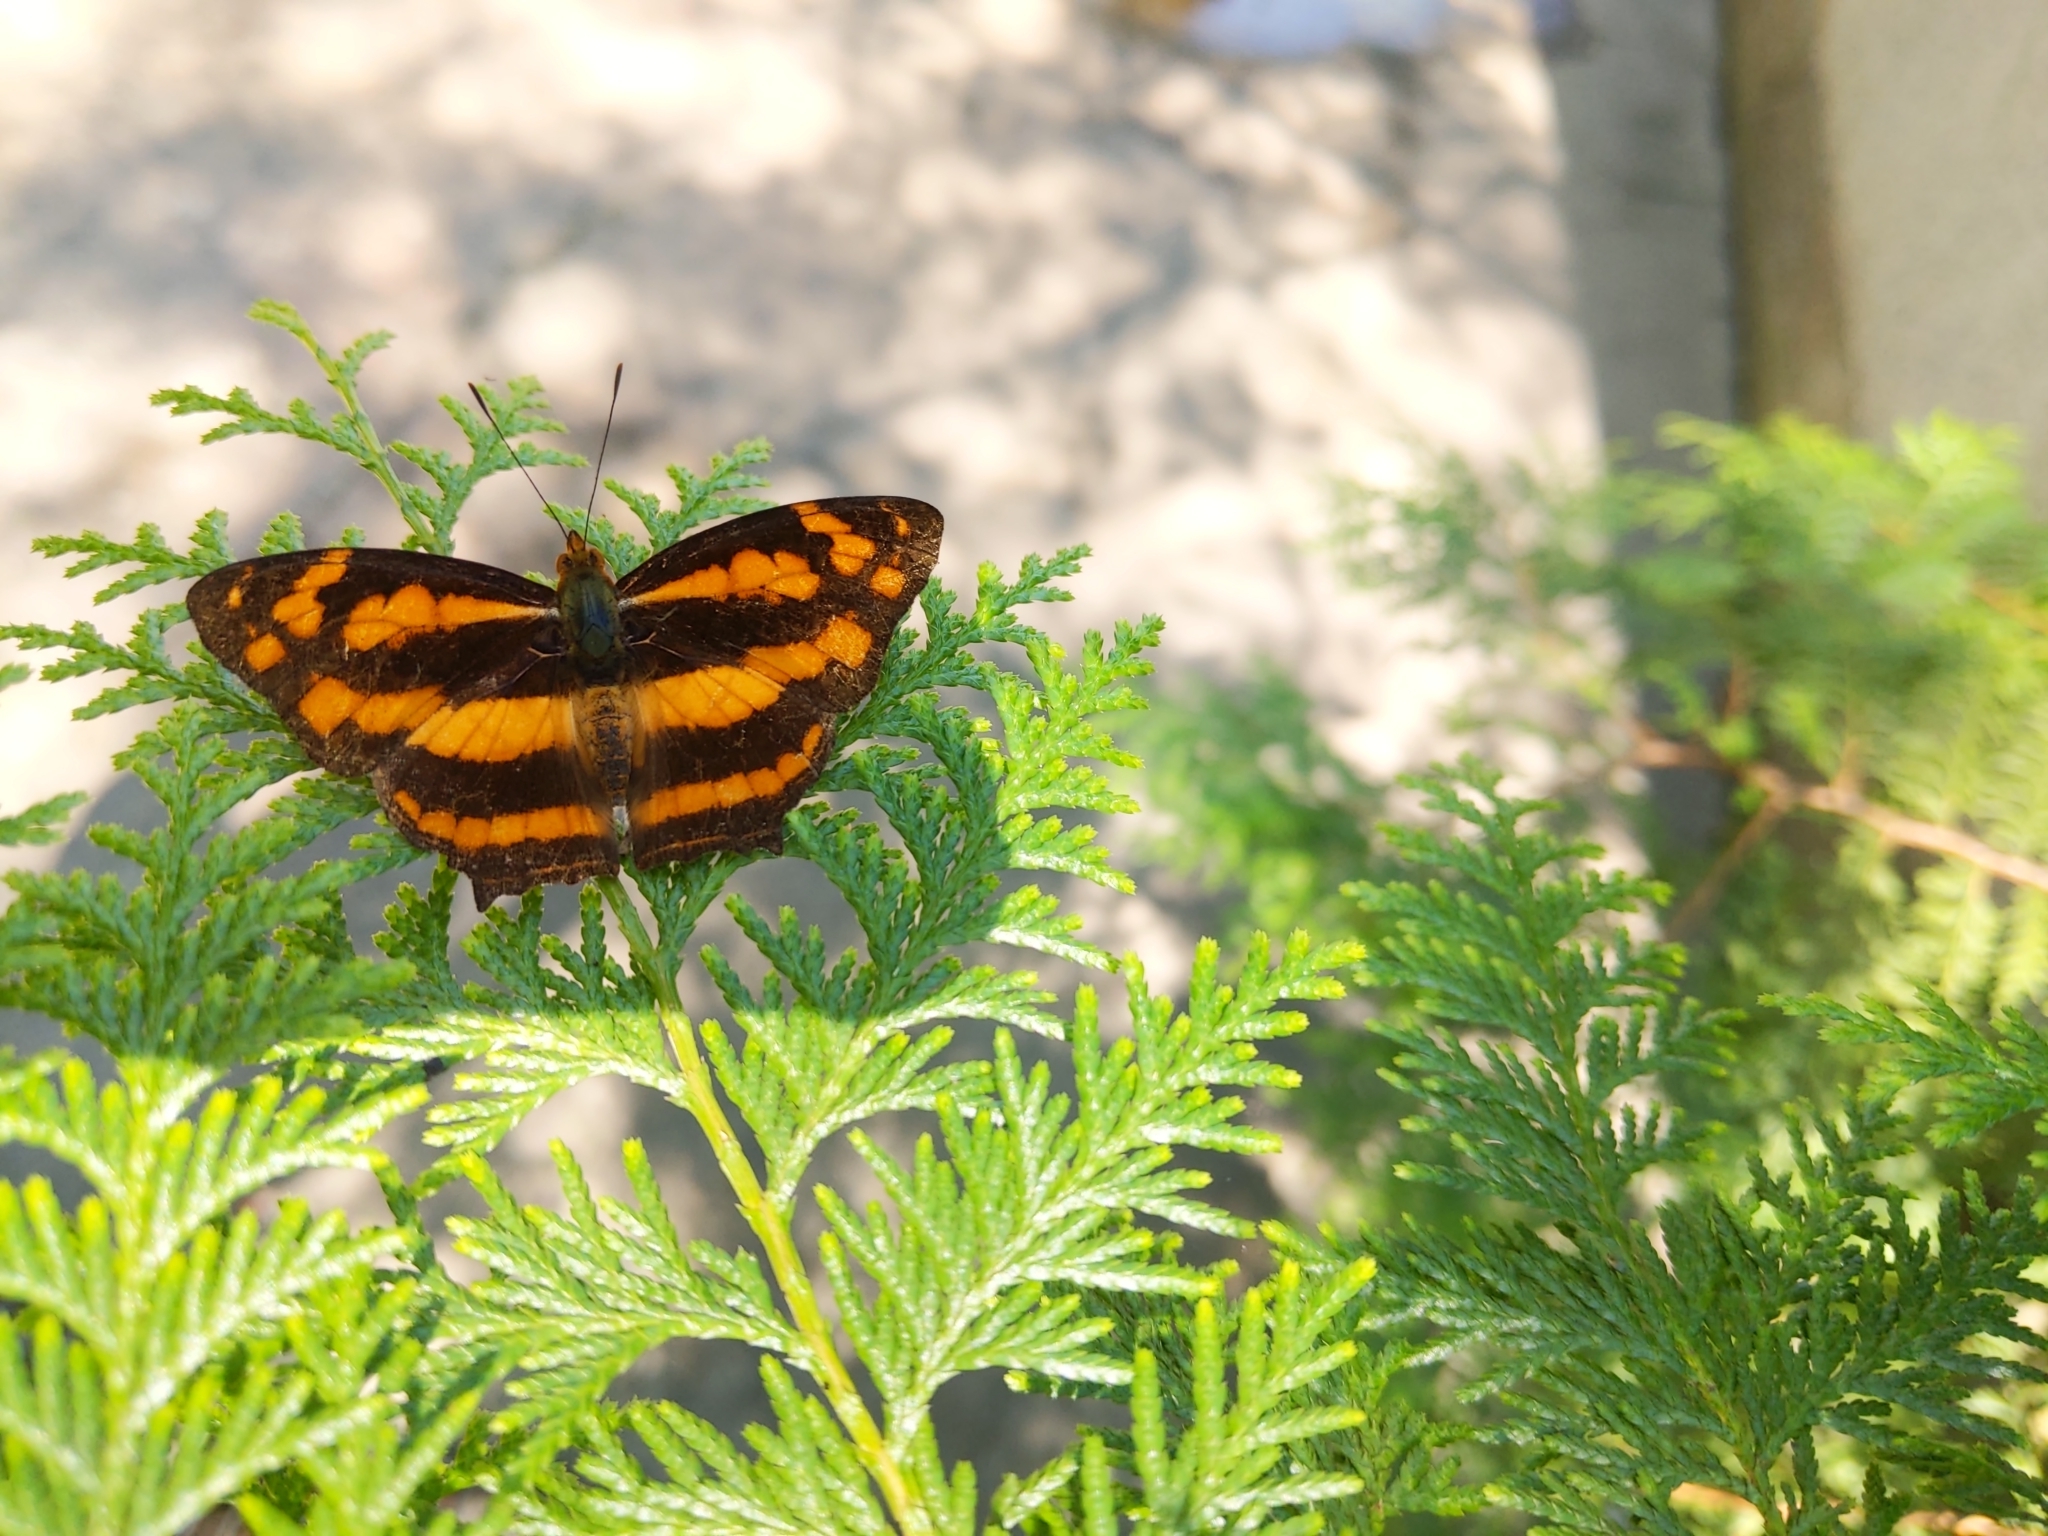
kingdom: Animalia
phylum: Arthropoda
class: Insecta
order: Lepidoptera
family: Nymphalidae
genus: Symbrenthia
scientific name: Symbrenthia hypselis
